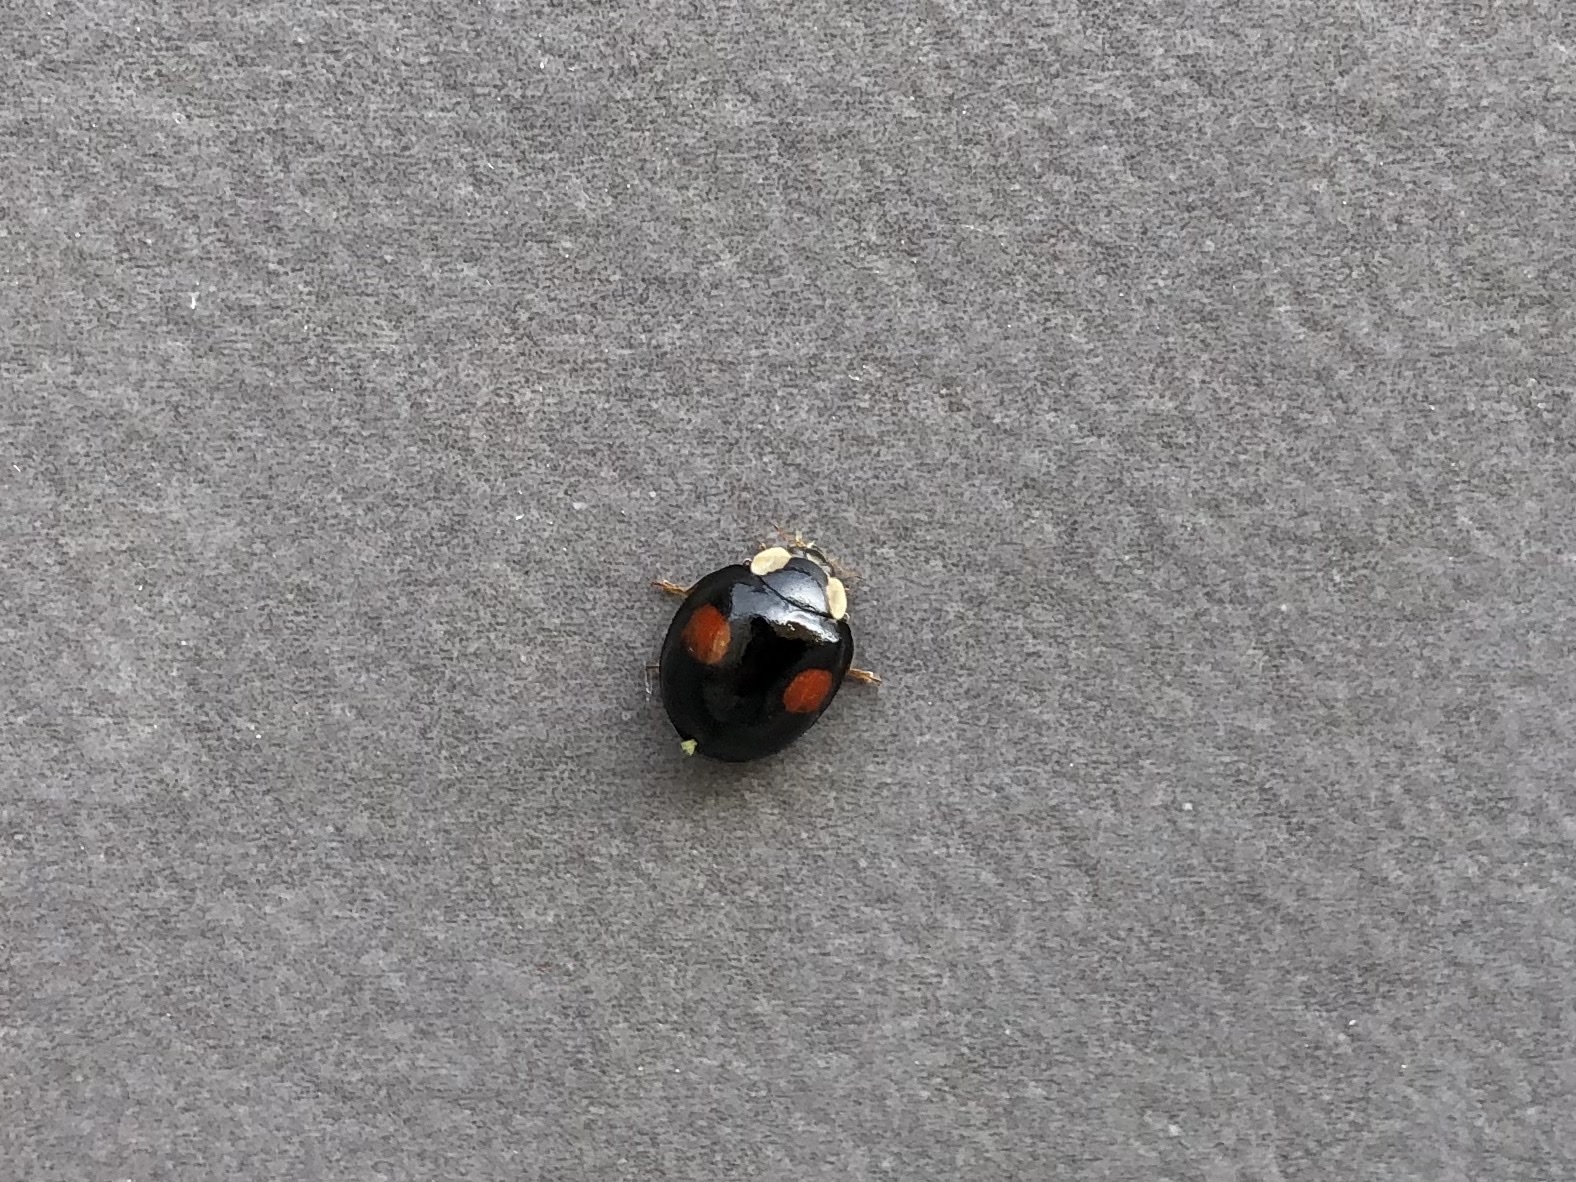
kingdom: Animalia
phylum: Arthropoda
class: Insecta
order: Coleoptera
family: Coccinellidae
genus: Harmonia
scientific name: Harmonia axyridis
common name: Harlequin ladybird
